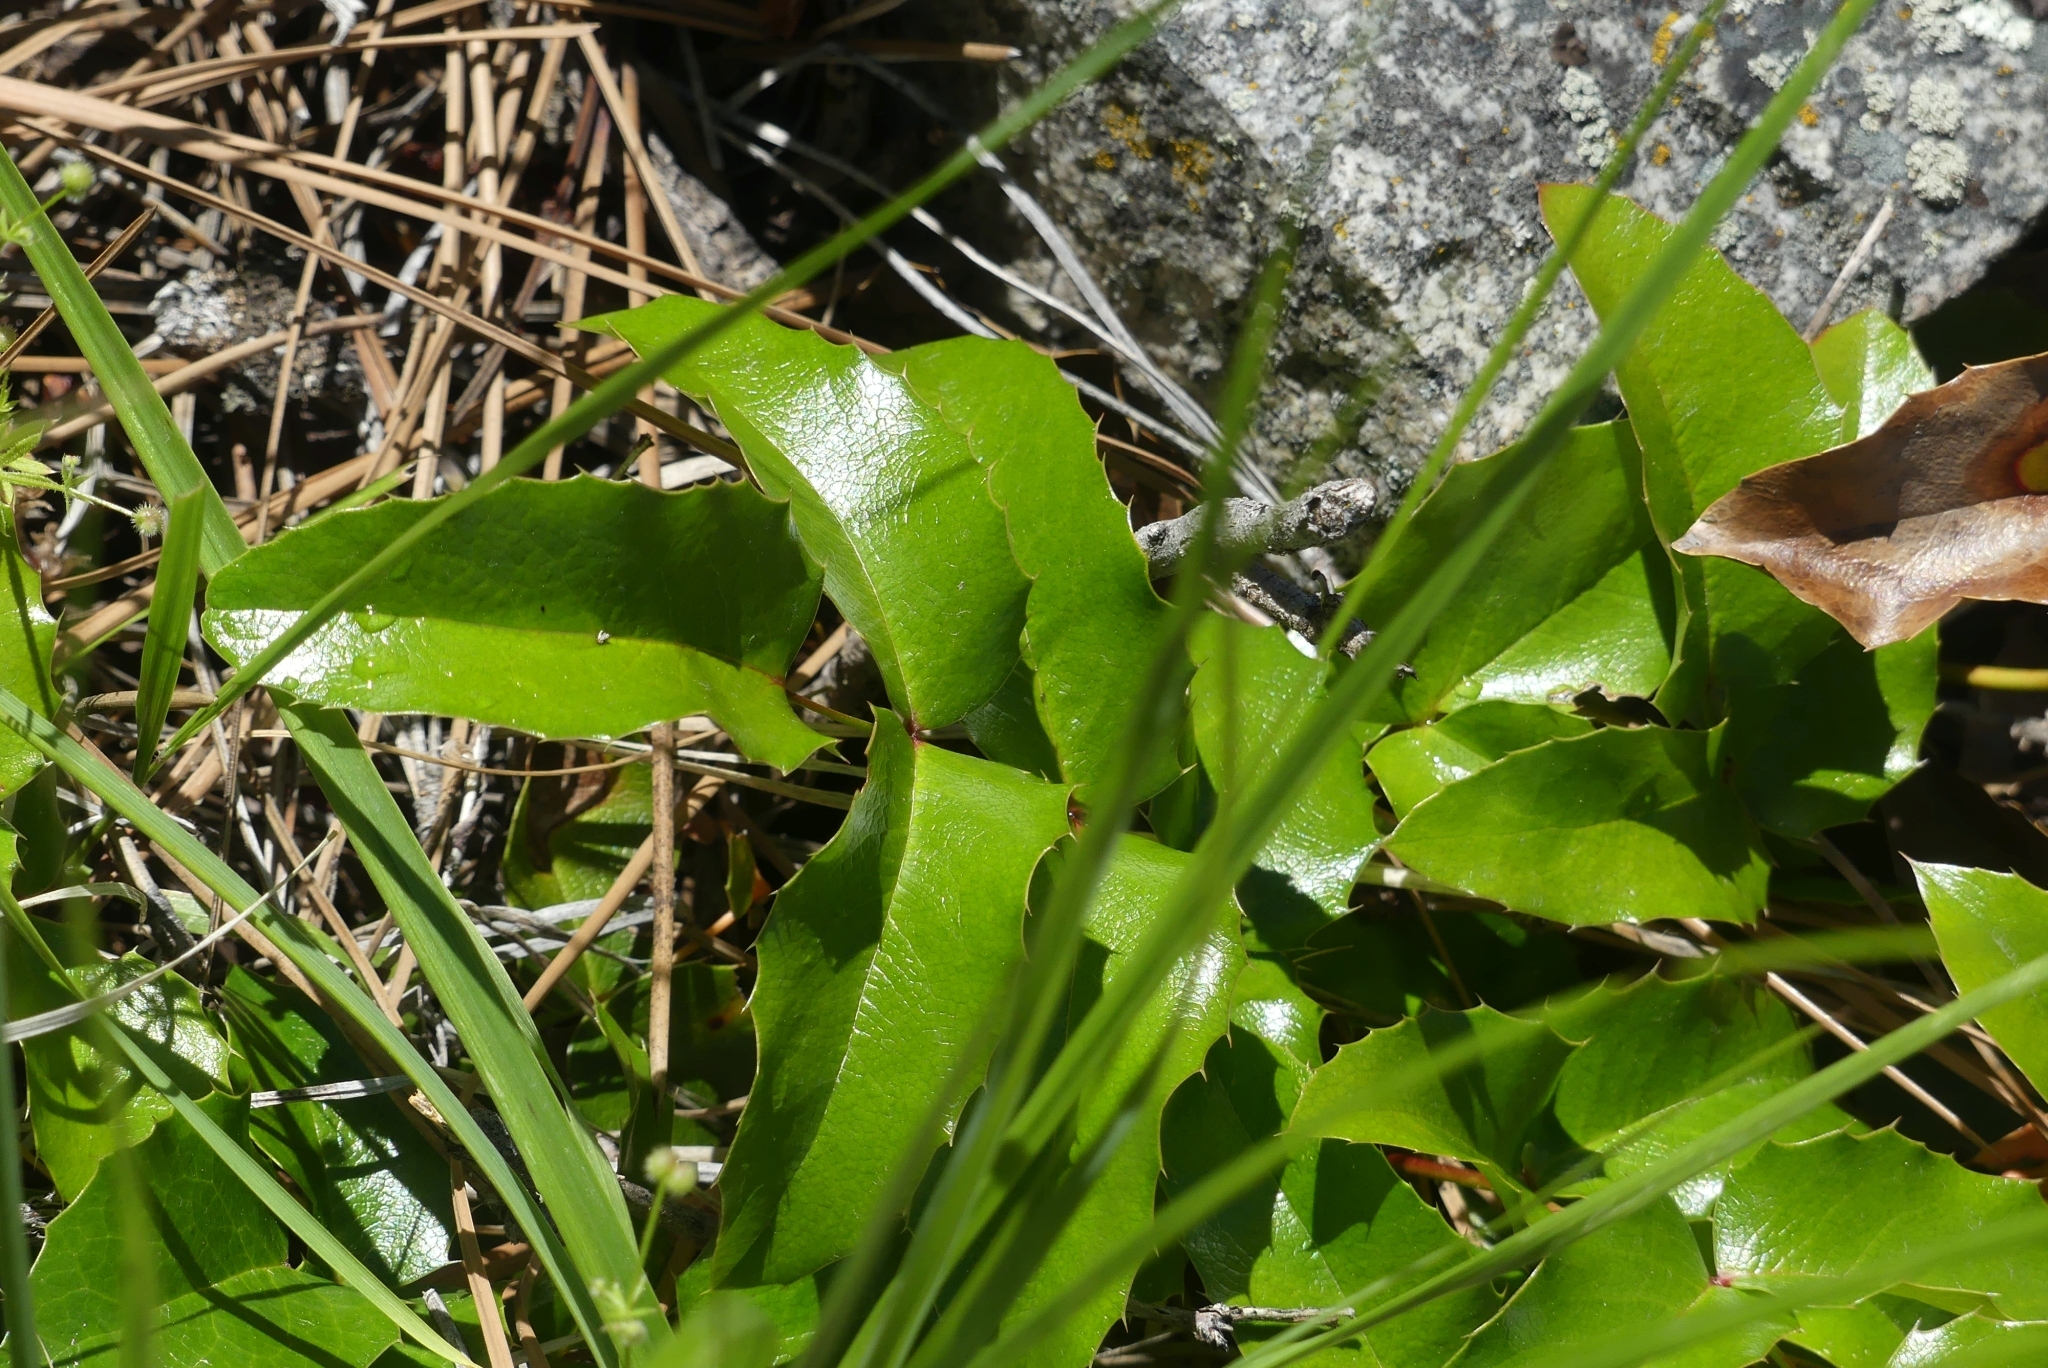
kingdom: Plantae
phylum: Tracheophyta
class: Magnoliopsida
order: Ranunculales
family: Berberidaceae
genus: Mahonia
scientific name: Mahonia aquifolium
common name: Oregon-grape
